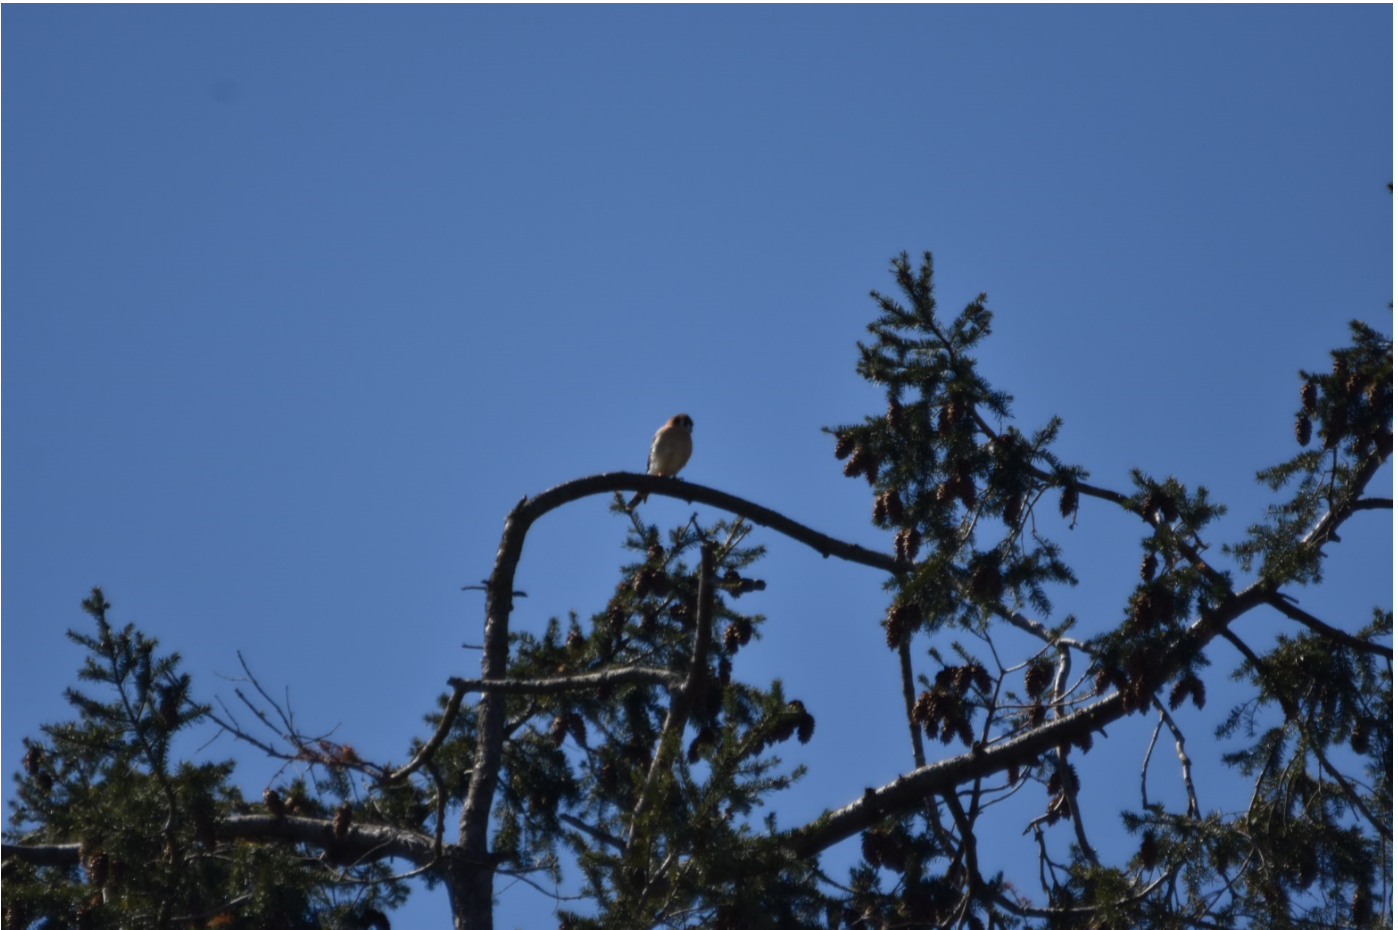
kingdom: Animalia
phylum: Chordata
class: Aves
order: Falconiformes
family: Falconidae
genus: Falco
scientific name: Falco sparverius
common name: American kestrel
